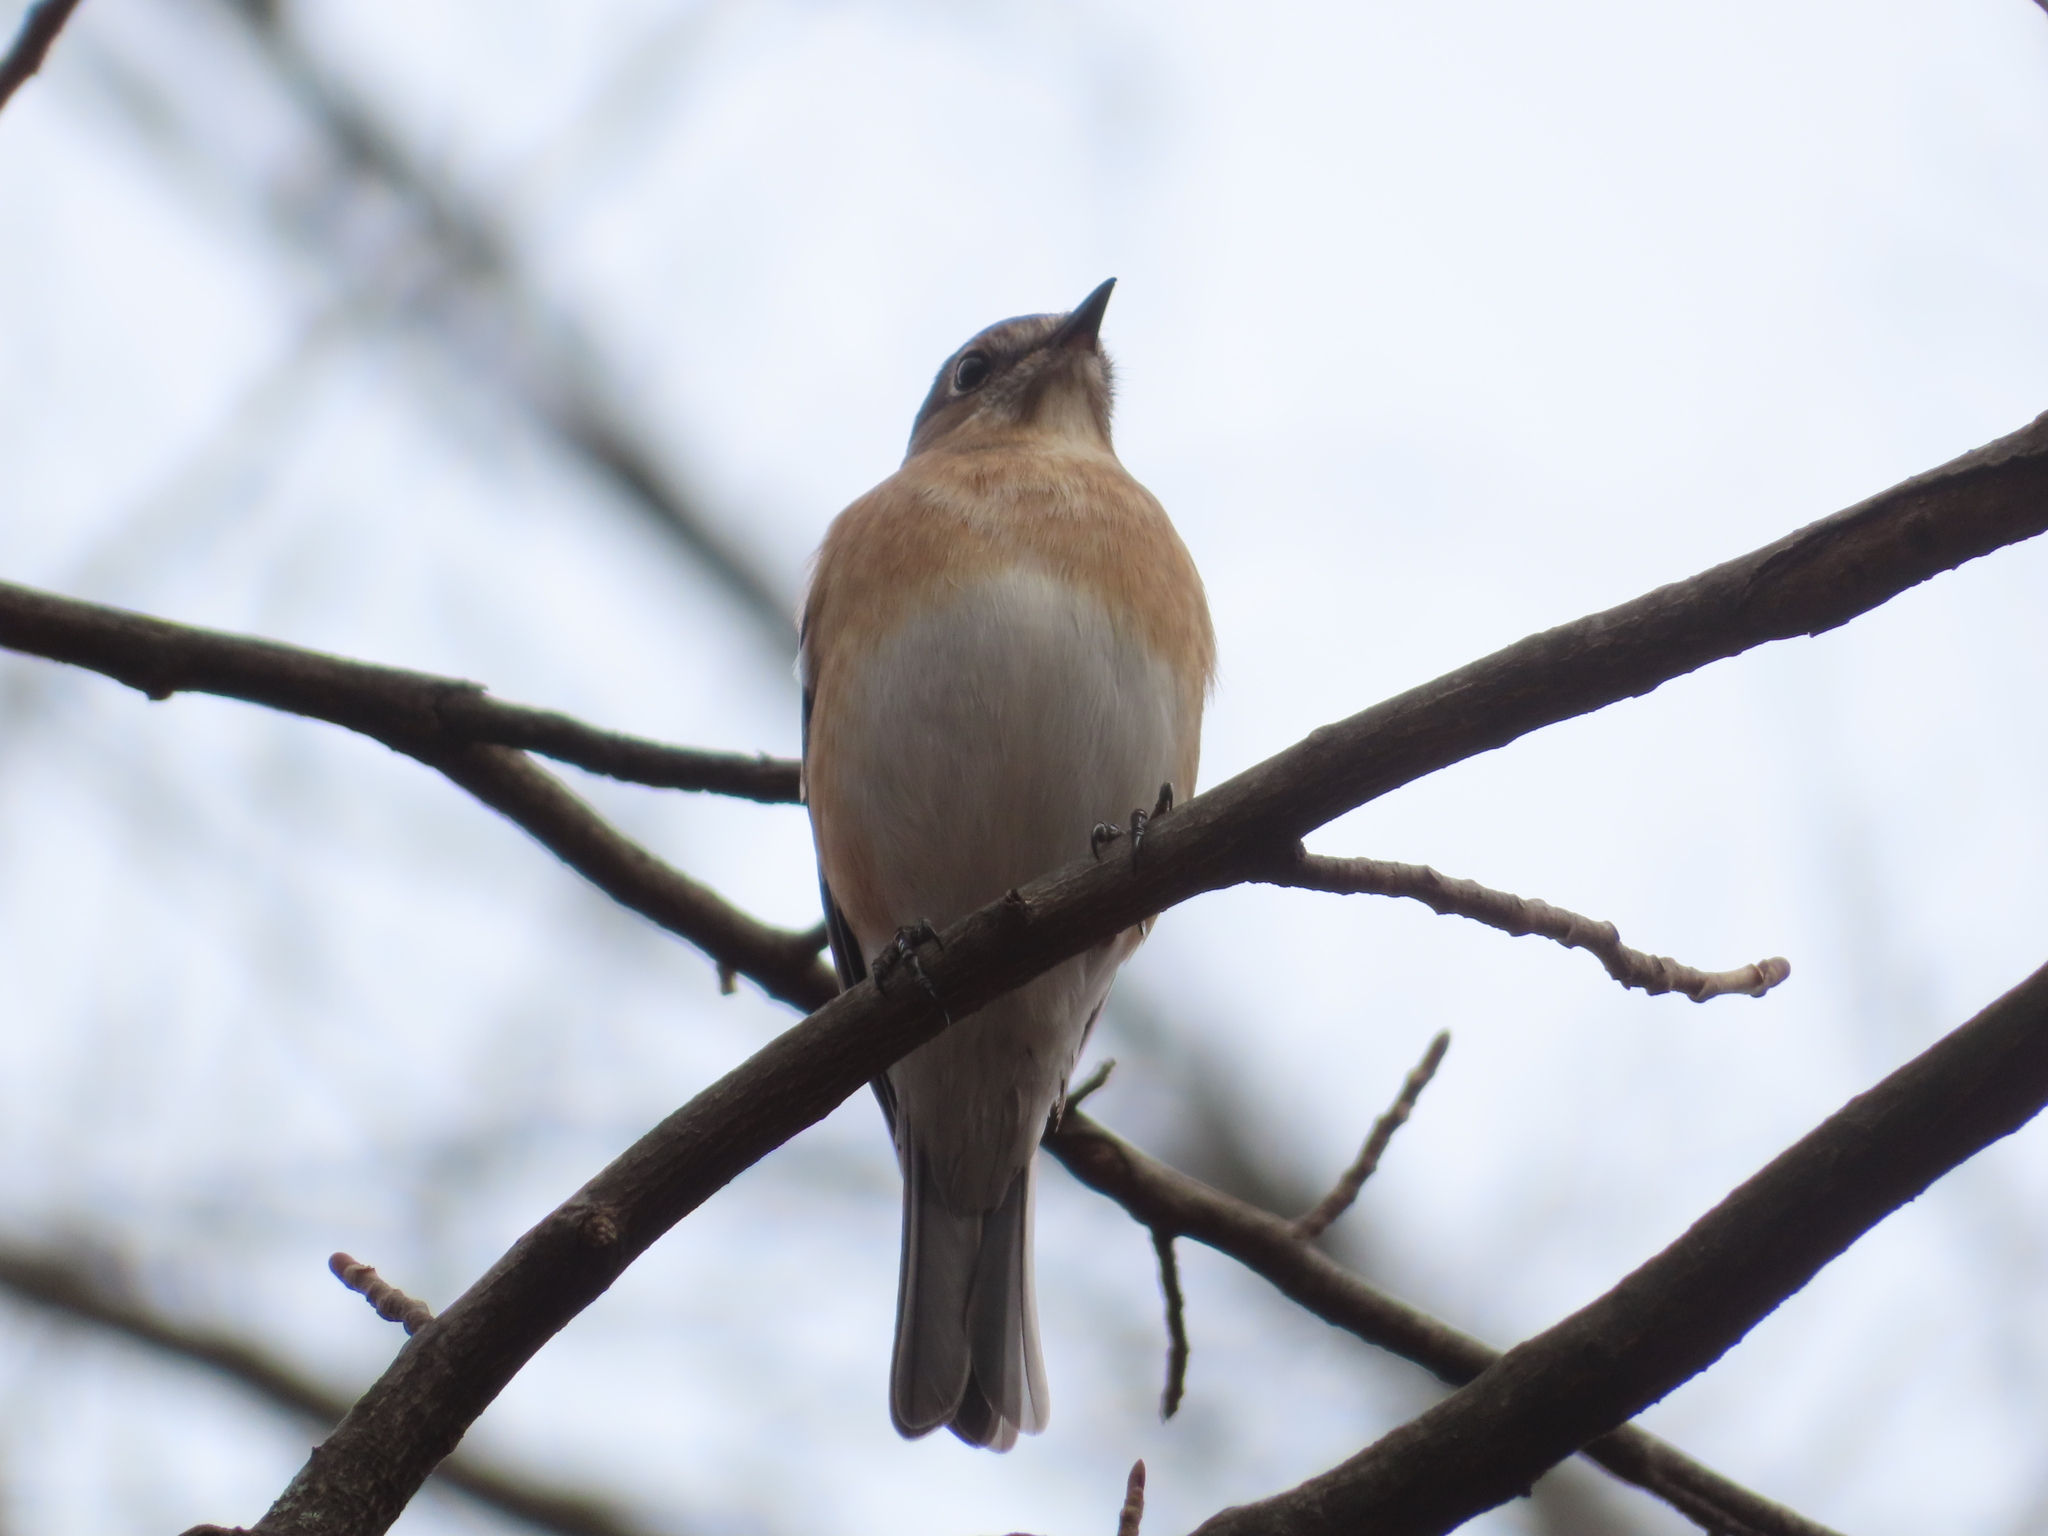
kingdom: Animalia
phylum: Chordata
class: Aves
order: Passeriformes
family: Turdidae
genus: Sialia
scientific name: Sialia sialis
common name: Eastern bluebird
